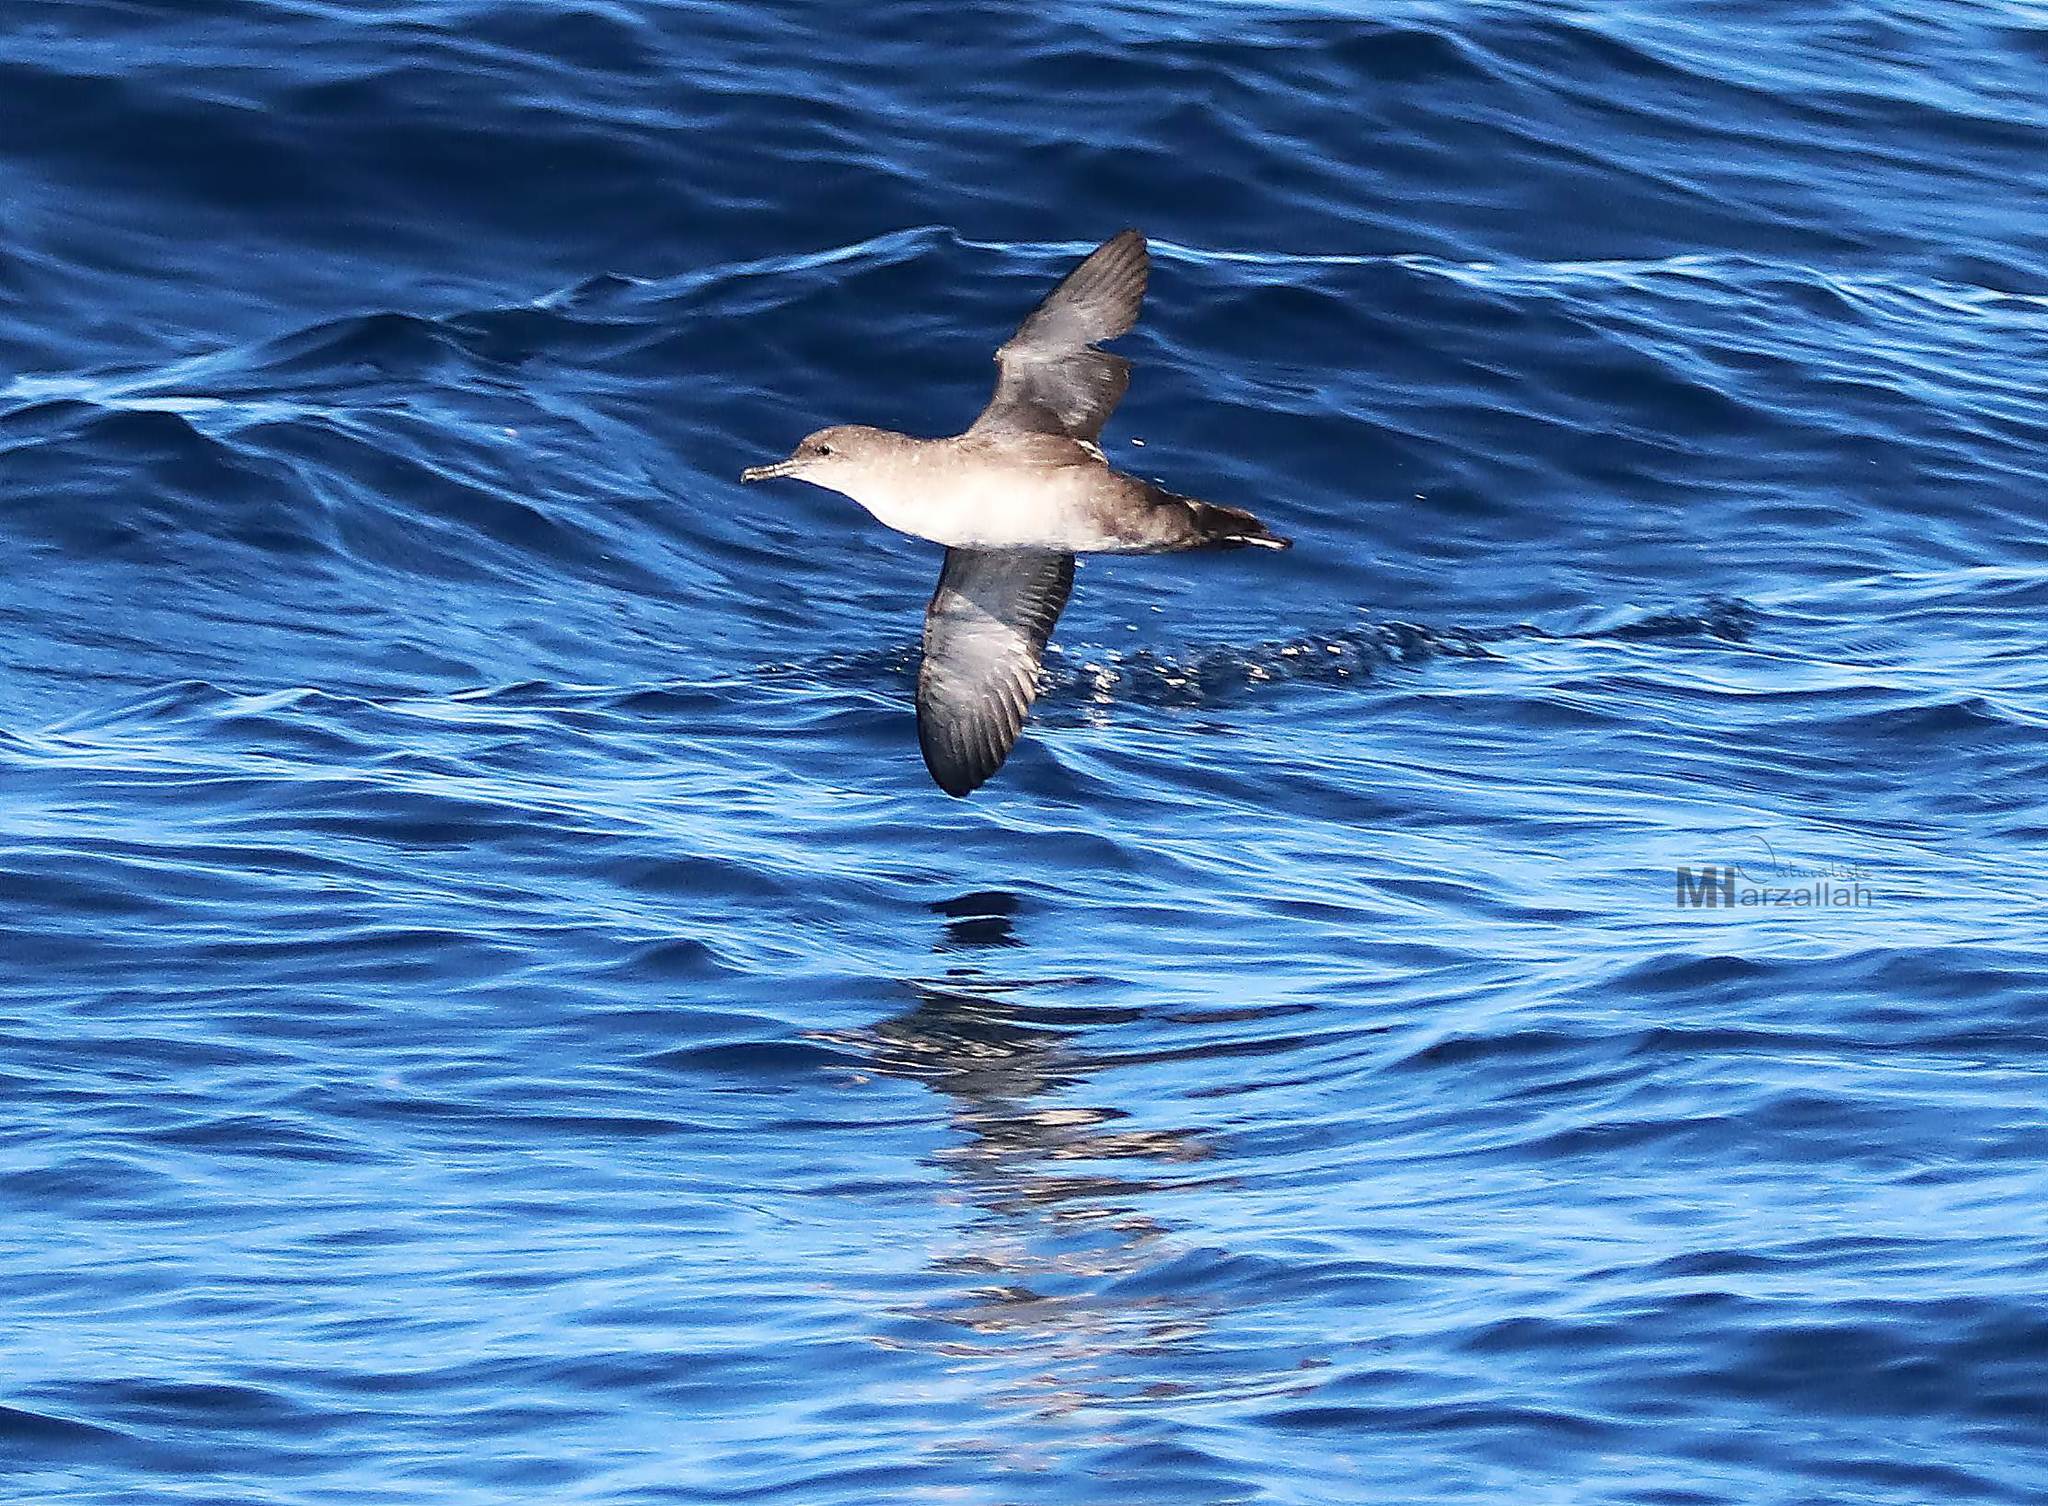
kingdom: Animalia
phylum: Chordata
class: Aves
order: Procellariiformes
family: Procellariidae
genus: Puffinus
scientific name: Puffinus mauretanicus
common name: Balearic shearwater
